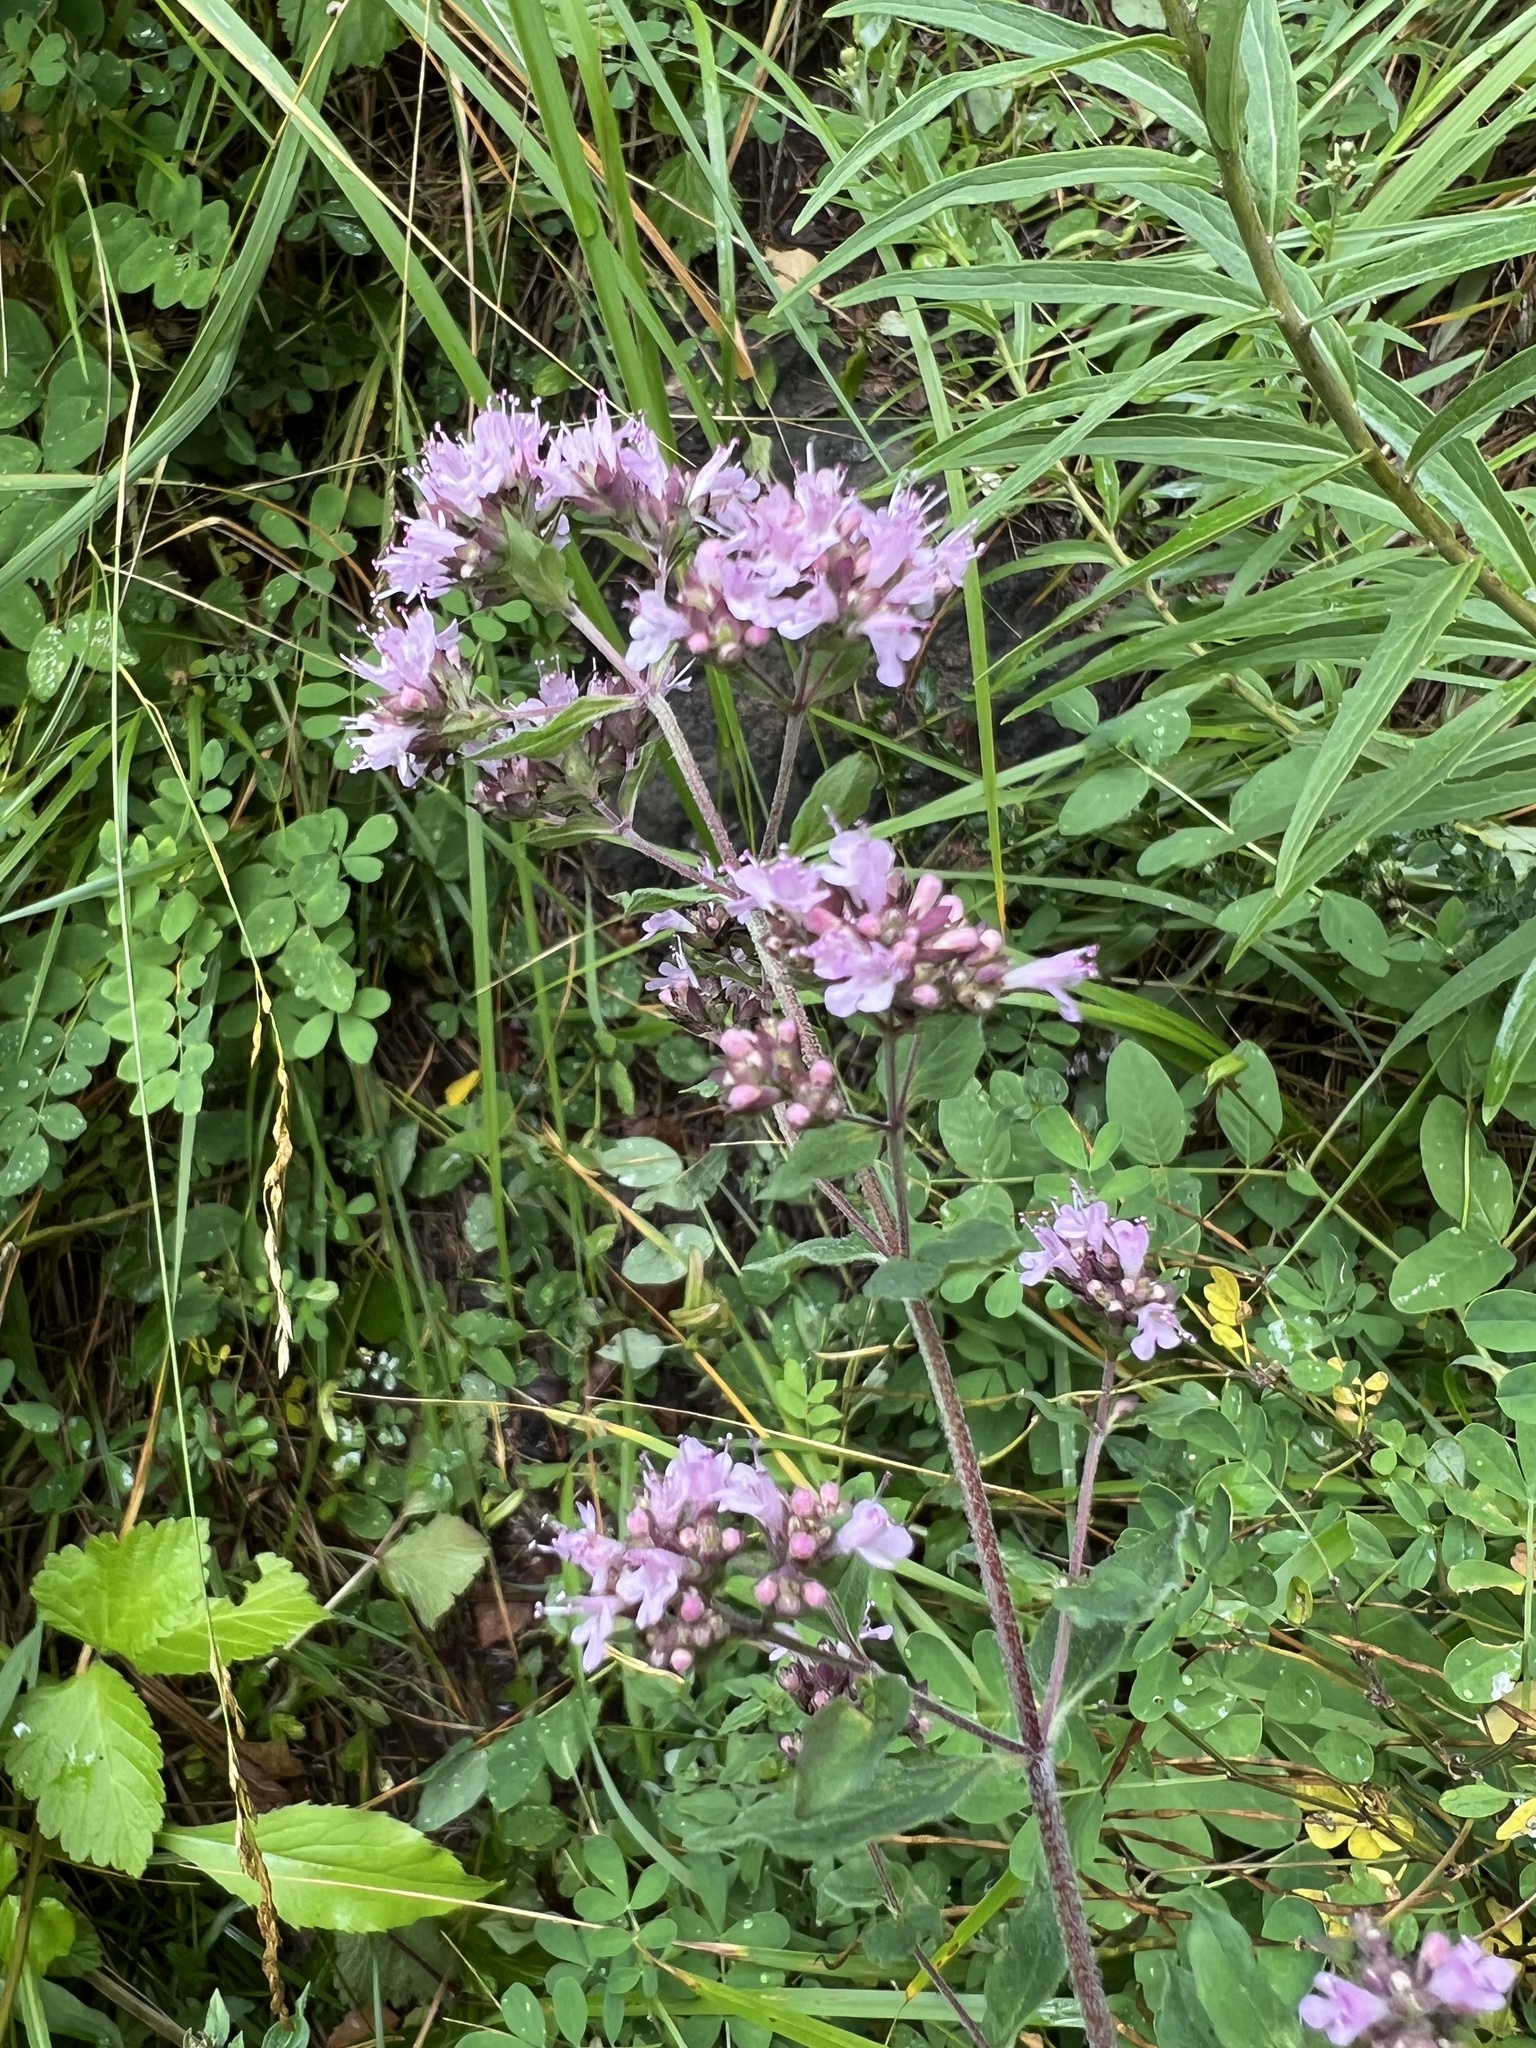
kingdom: Plantae
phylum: Tracheophyta
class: Magnoliopsida
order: Lamiales
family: Lamiaceae
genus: Origanum
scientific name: Origanum vulgare
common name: Wild marjoram
